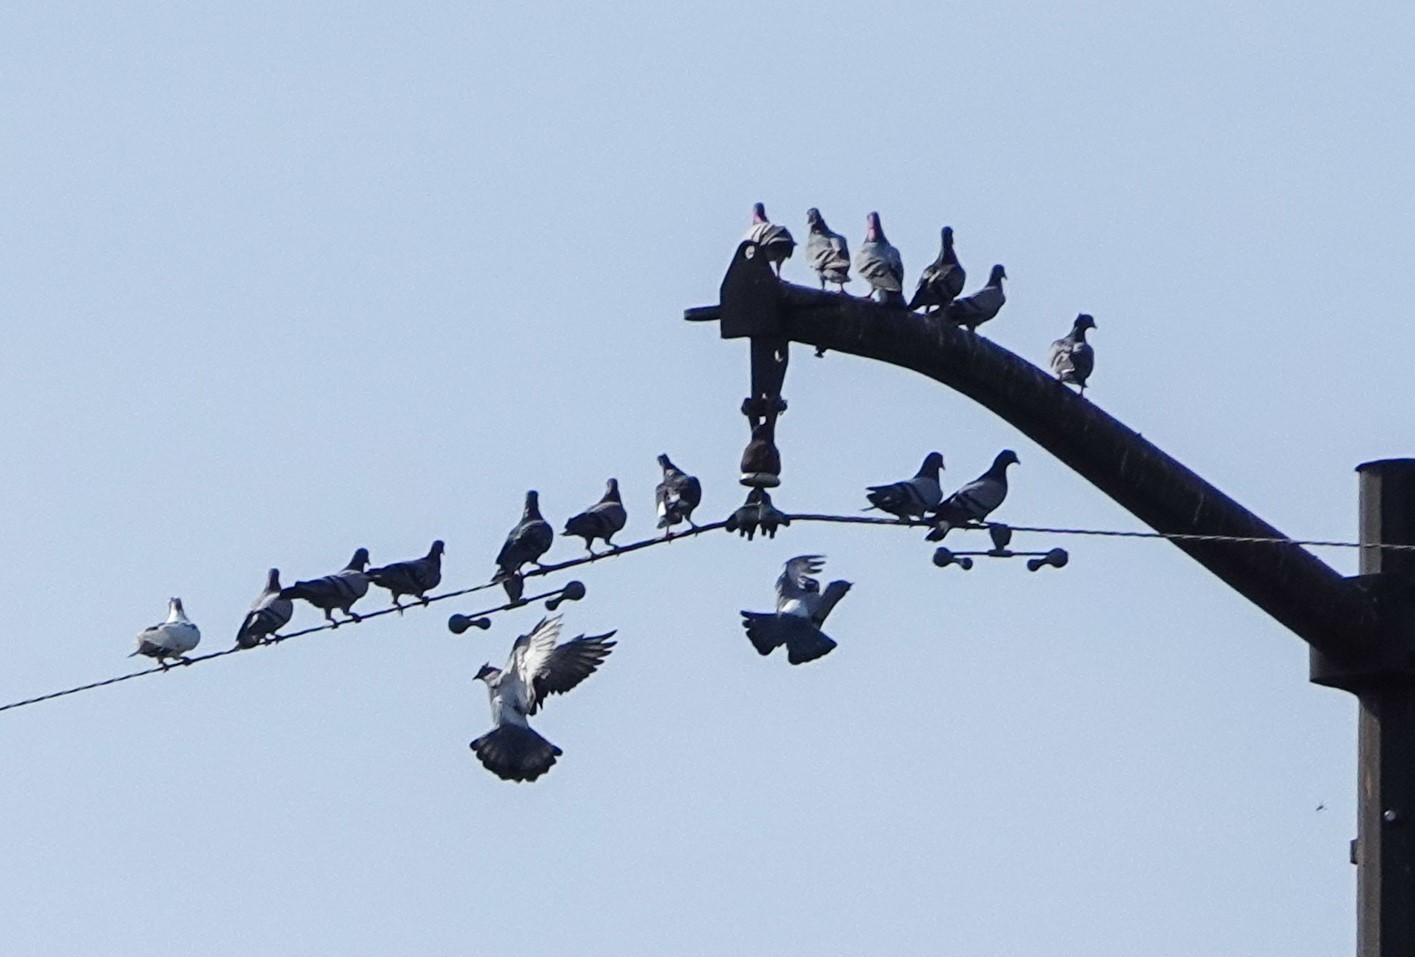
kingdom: Animalia
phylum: Chordata
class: Aves
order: Columbiformes
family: Columbidae
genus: Columba
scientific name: Columba livia
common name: Rock pigeon
